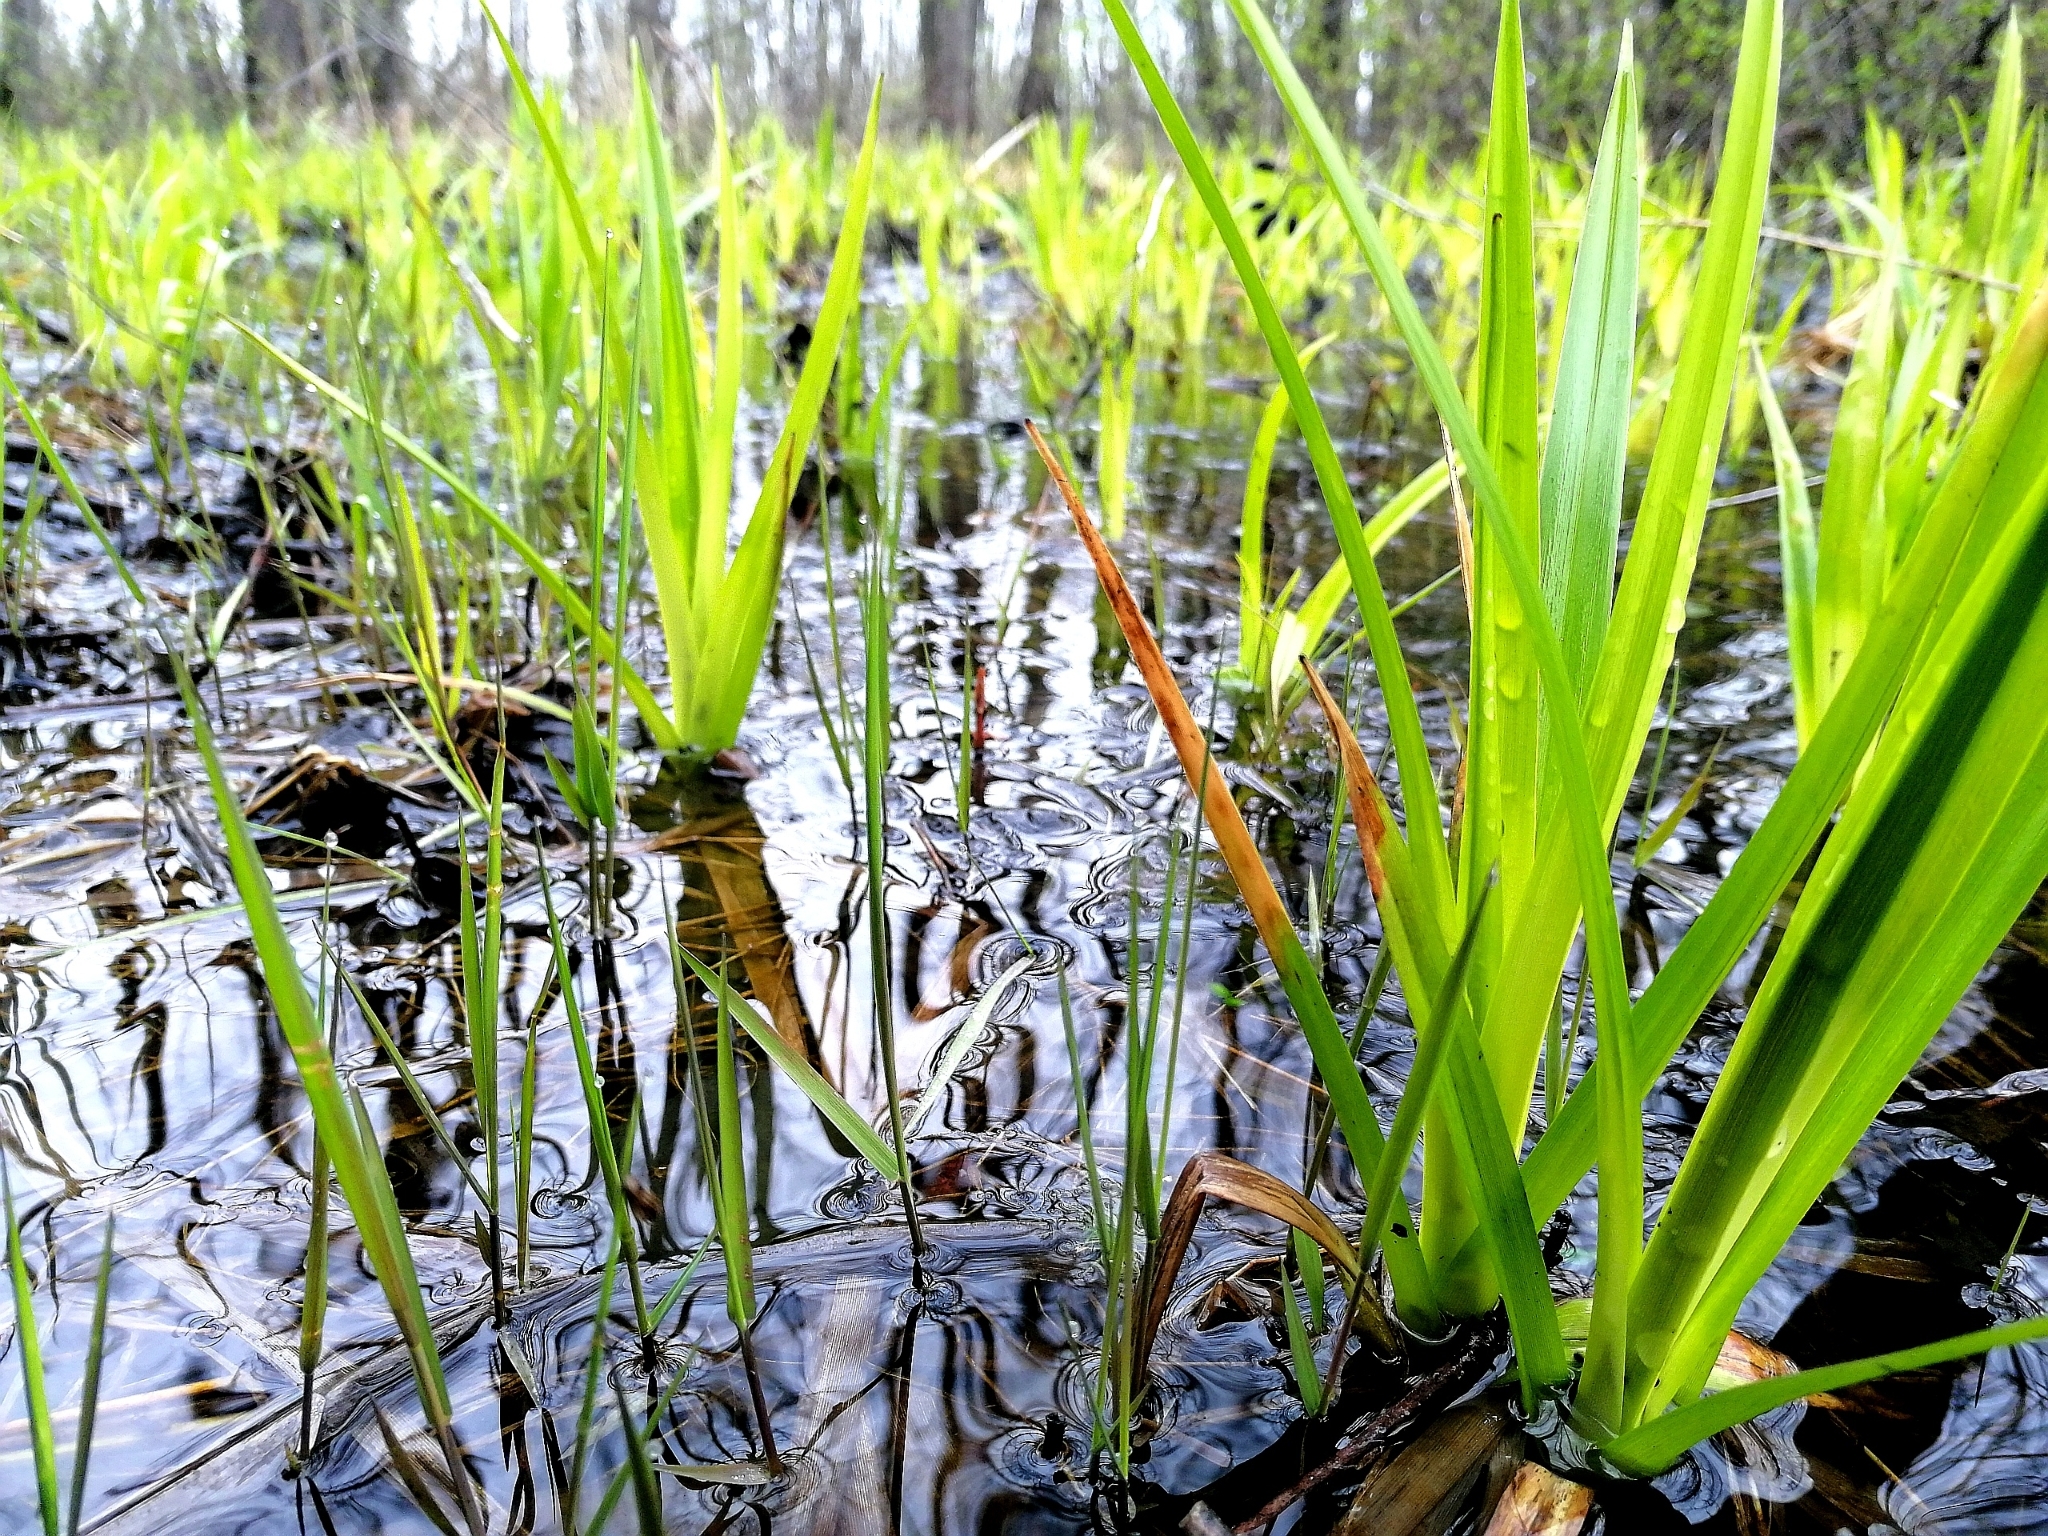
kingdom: Plantae
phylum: Tracheophyta
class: Liliopsida
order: Poales
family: Cyperaceae
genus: Scirpus
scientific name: Scirpus sylvaticus
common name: Wood club-rush
